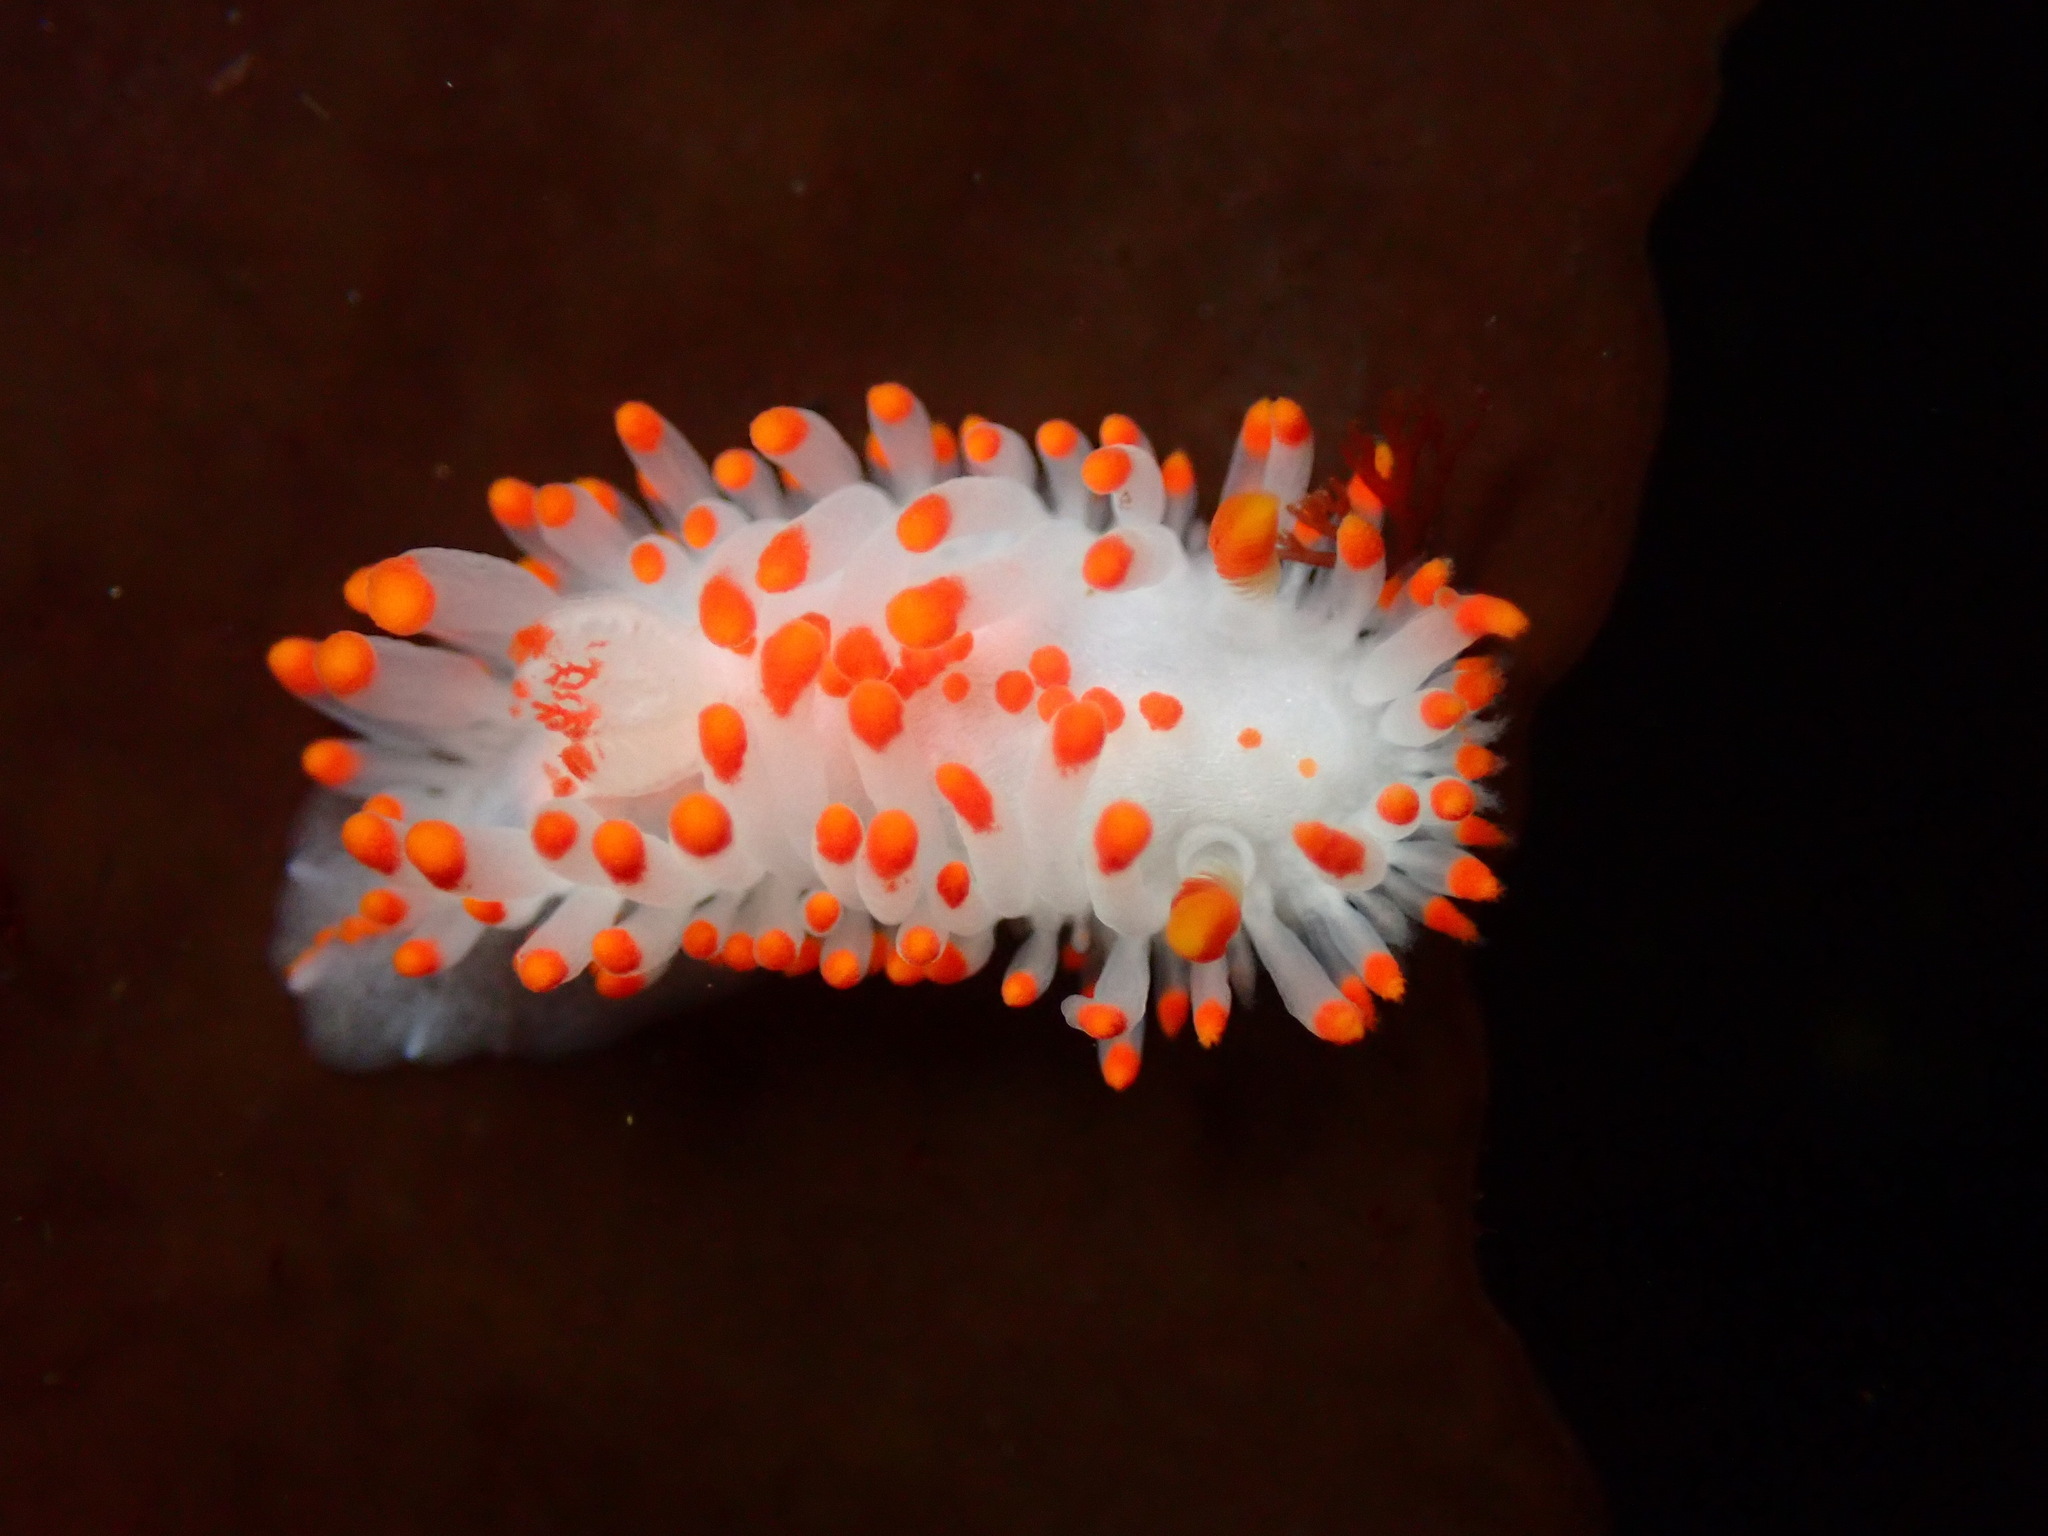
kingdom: Animalia
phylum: Mollusca
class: Gastropoda
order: Nudibranchia
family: Polyceridae
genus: Limacia
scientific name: Limacia mcdonaldi
